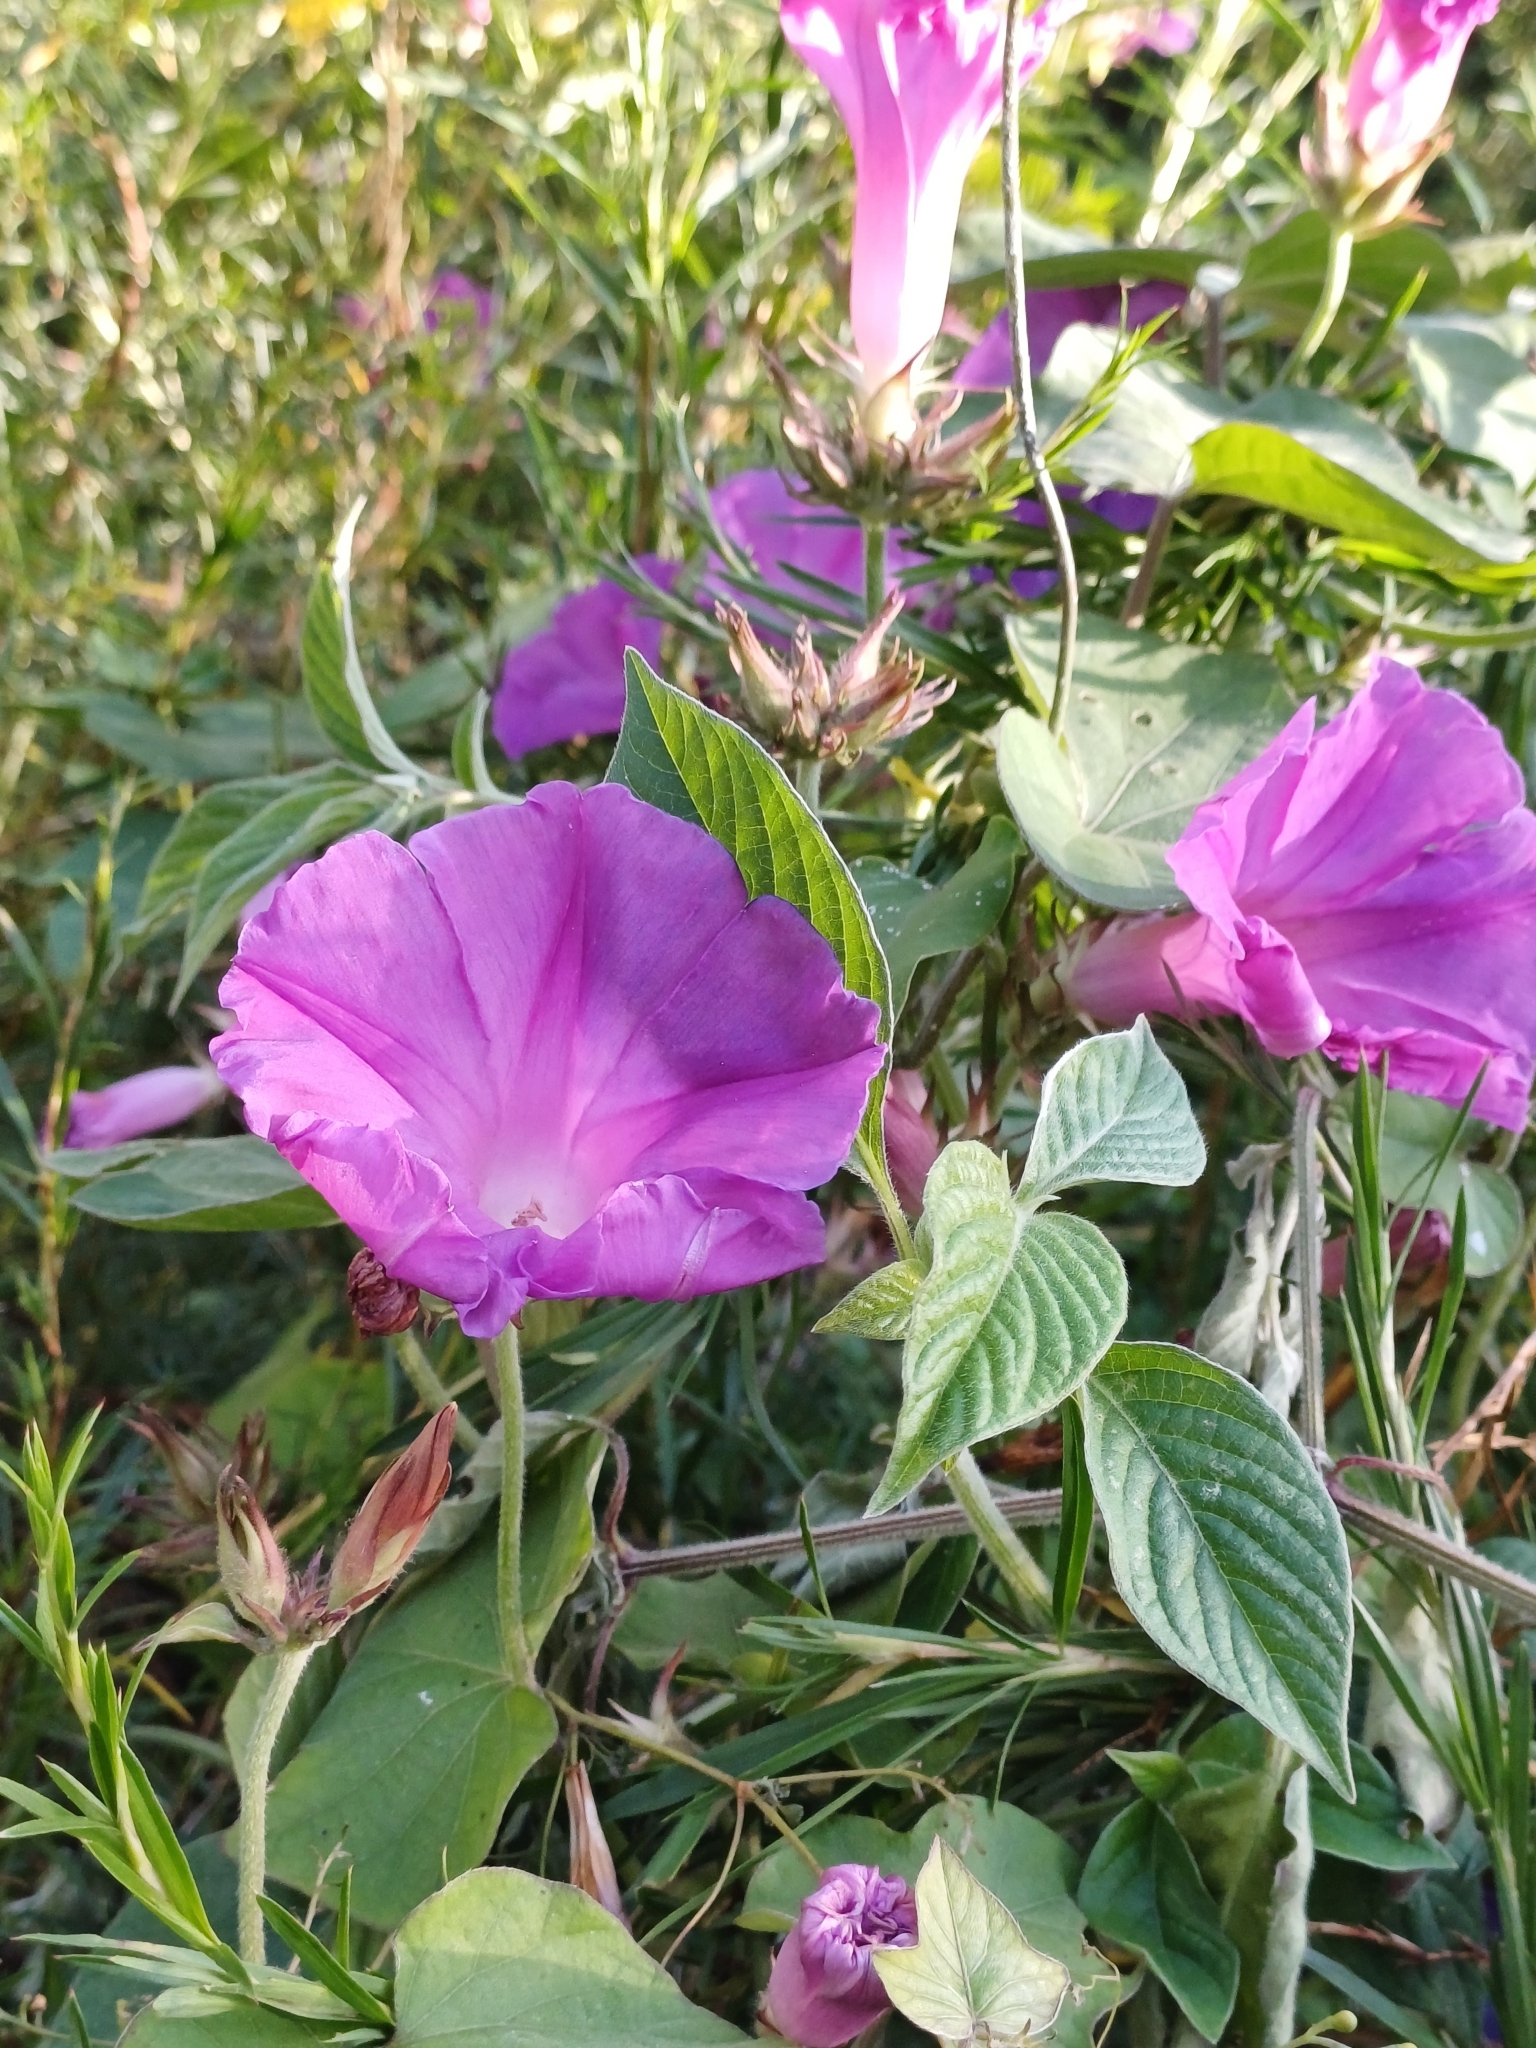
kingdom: Plantae
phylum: Tracheophyta
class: Magnoliopsida
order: Solanales
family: Convolvulaceae
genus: Ipomoea
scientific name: Ipomoea indica
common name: Blue dawnflower
